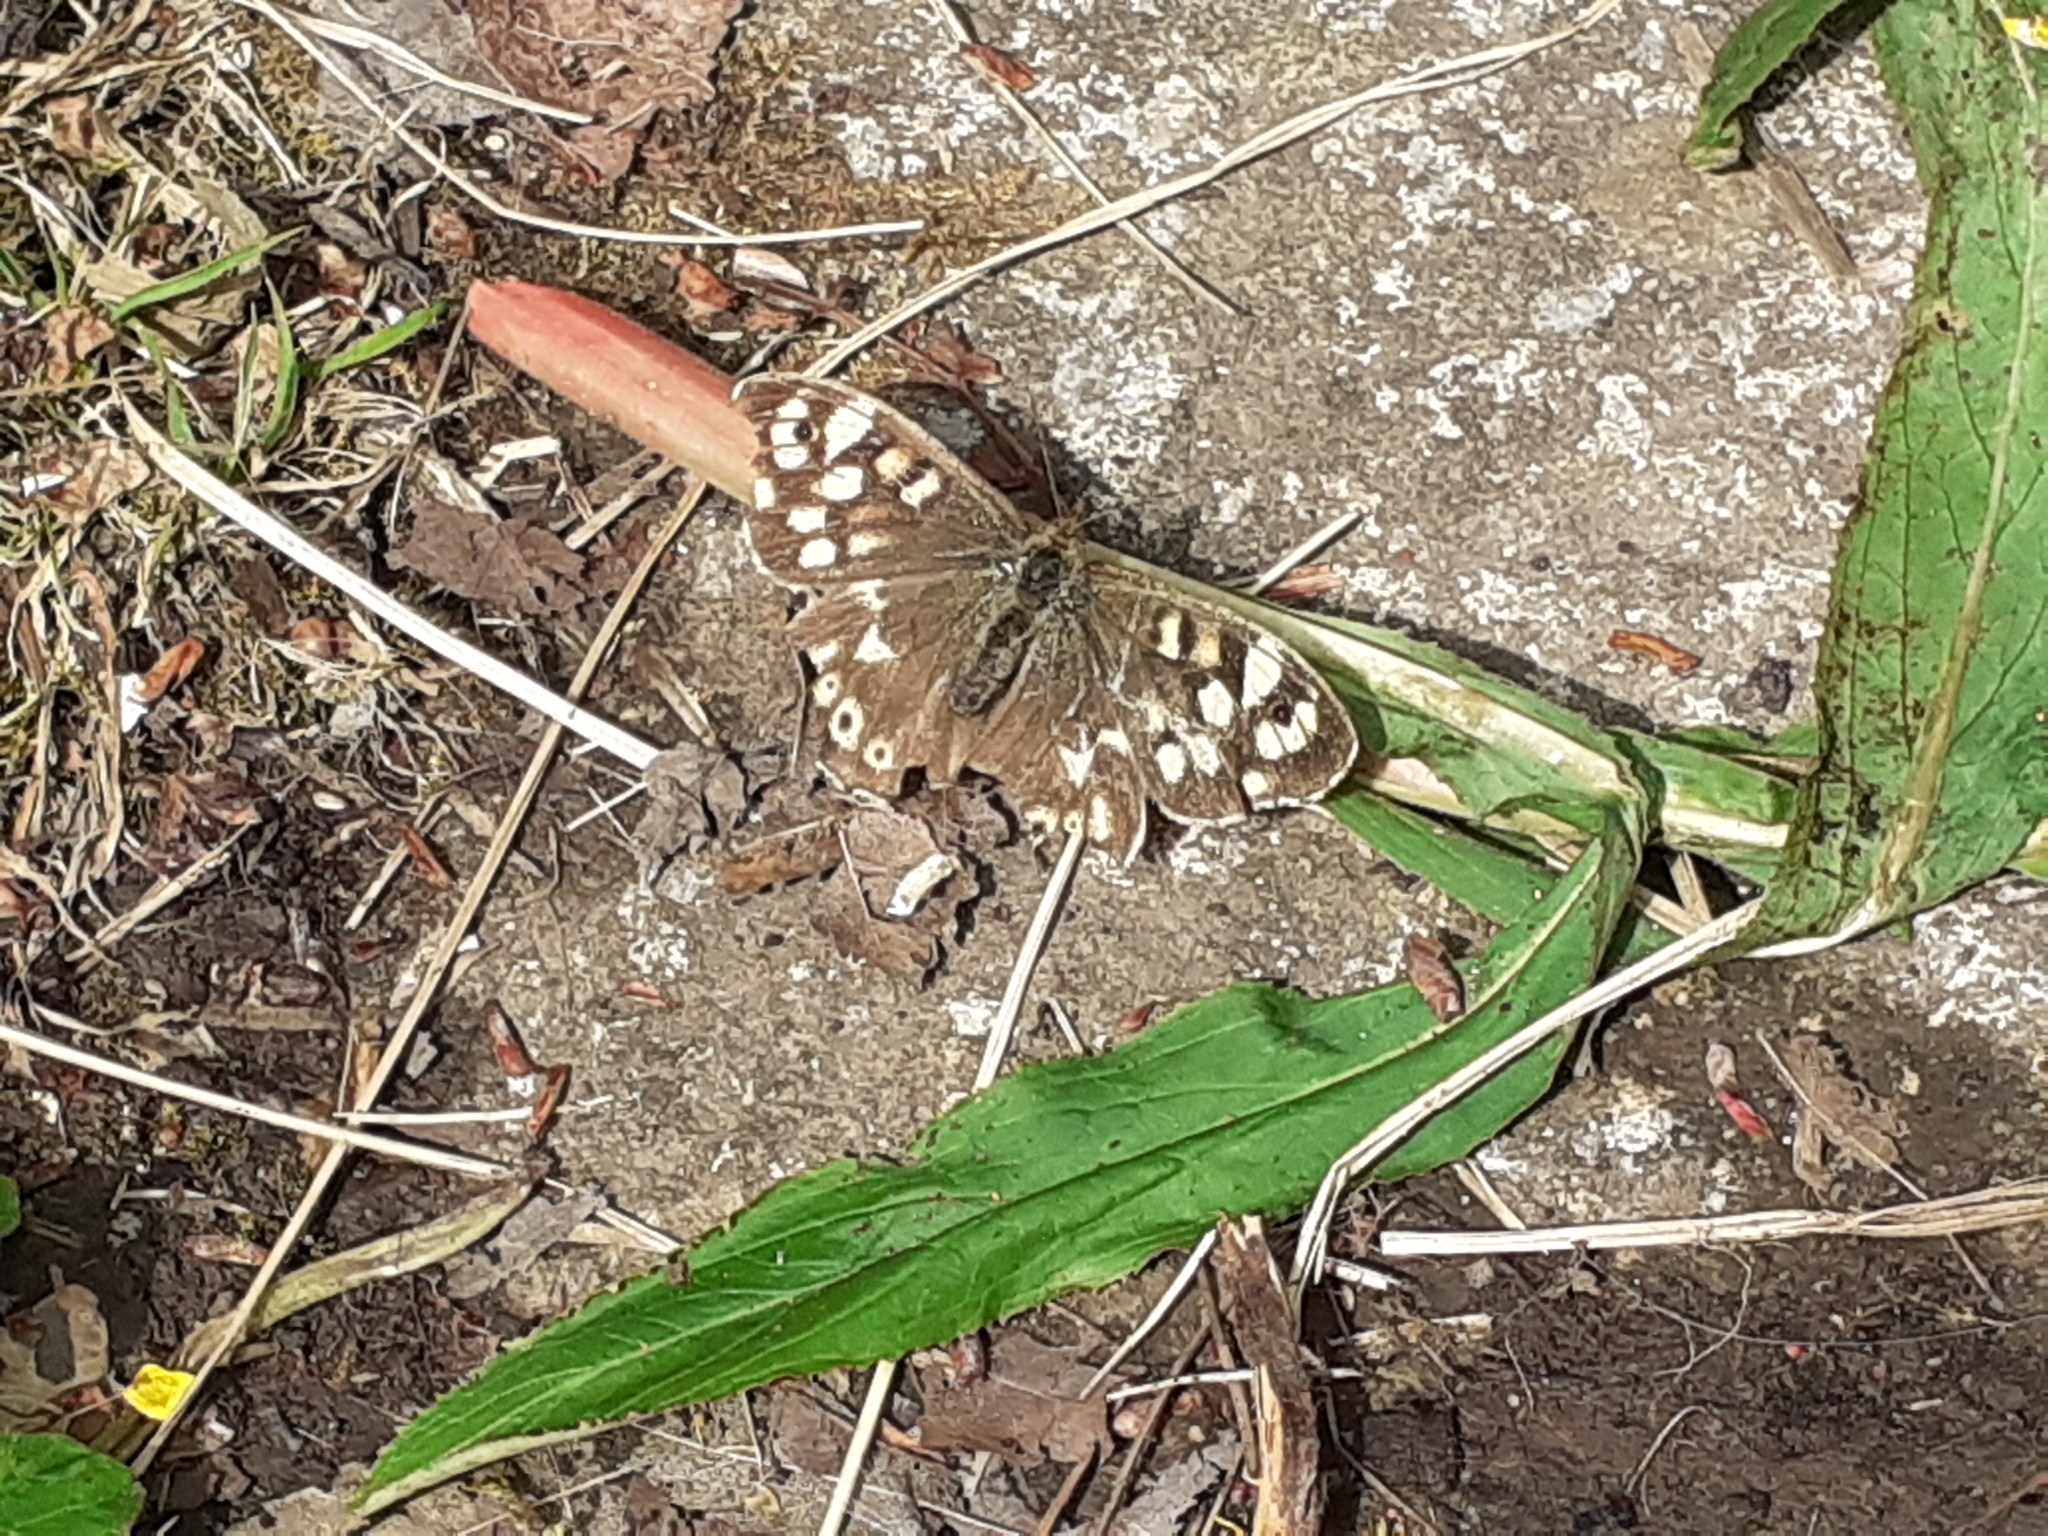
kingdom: Animalia
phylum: Arthropoda
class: Insecta
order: Lepidoptera
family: Nymphalidae
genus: Pararge
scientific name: Pararge aegeria
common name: Speckled wood
